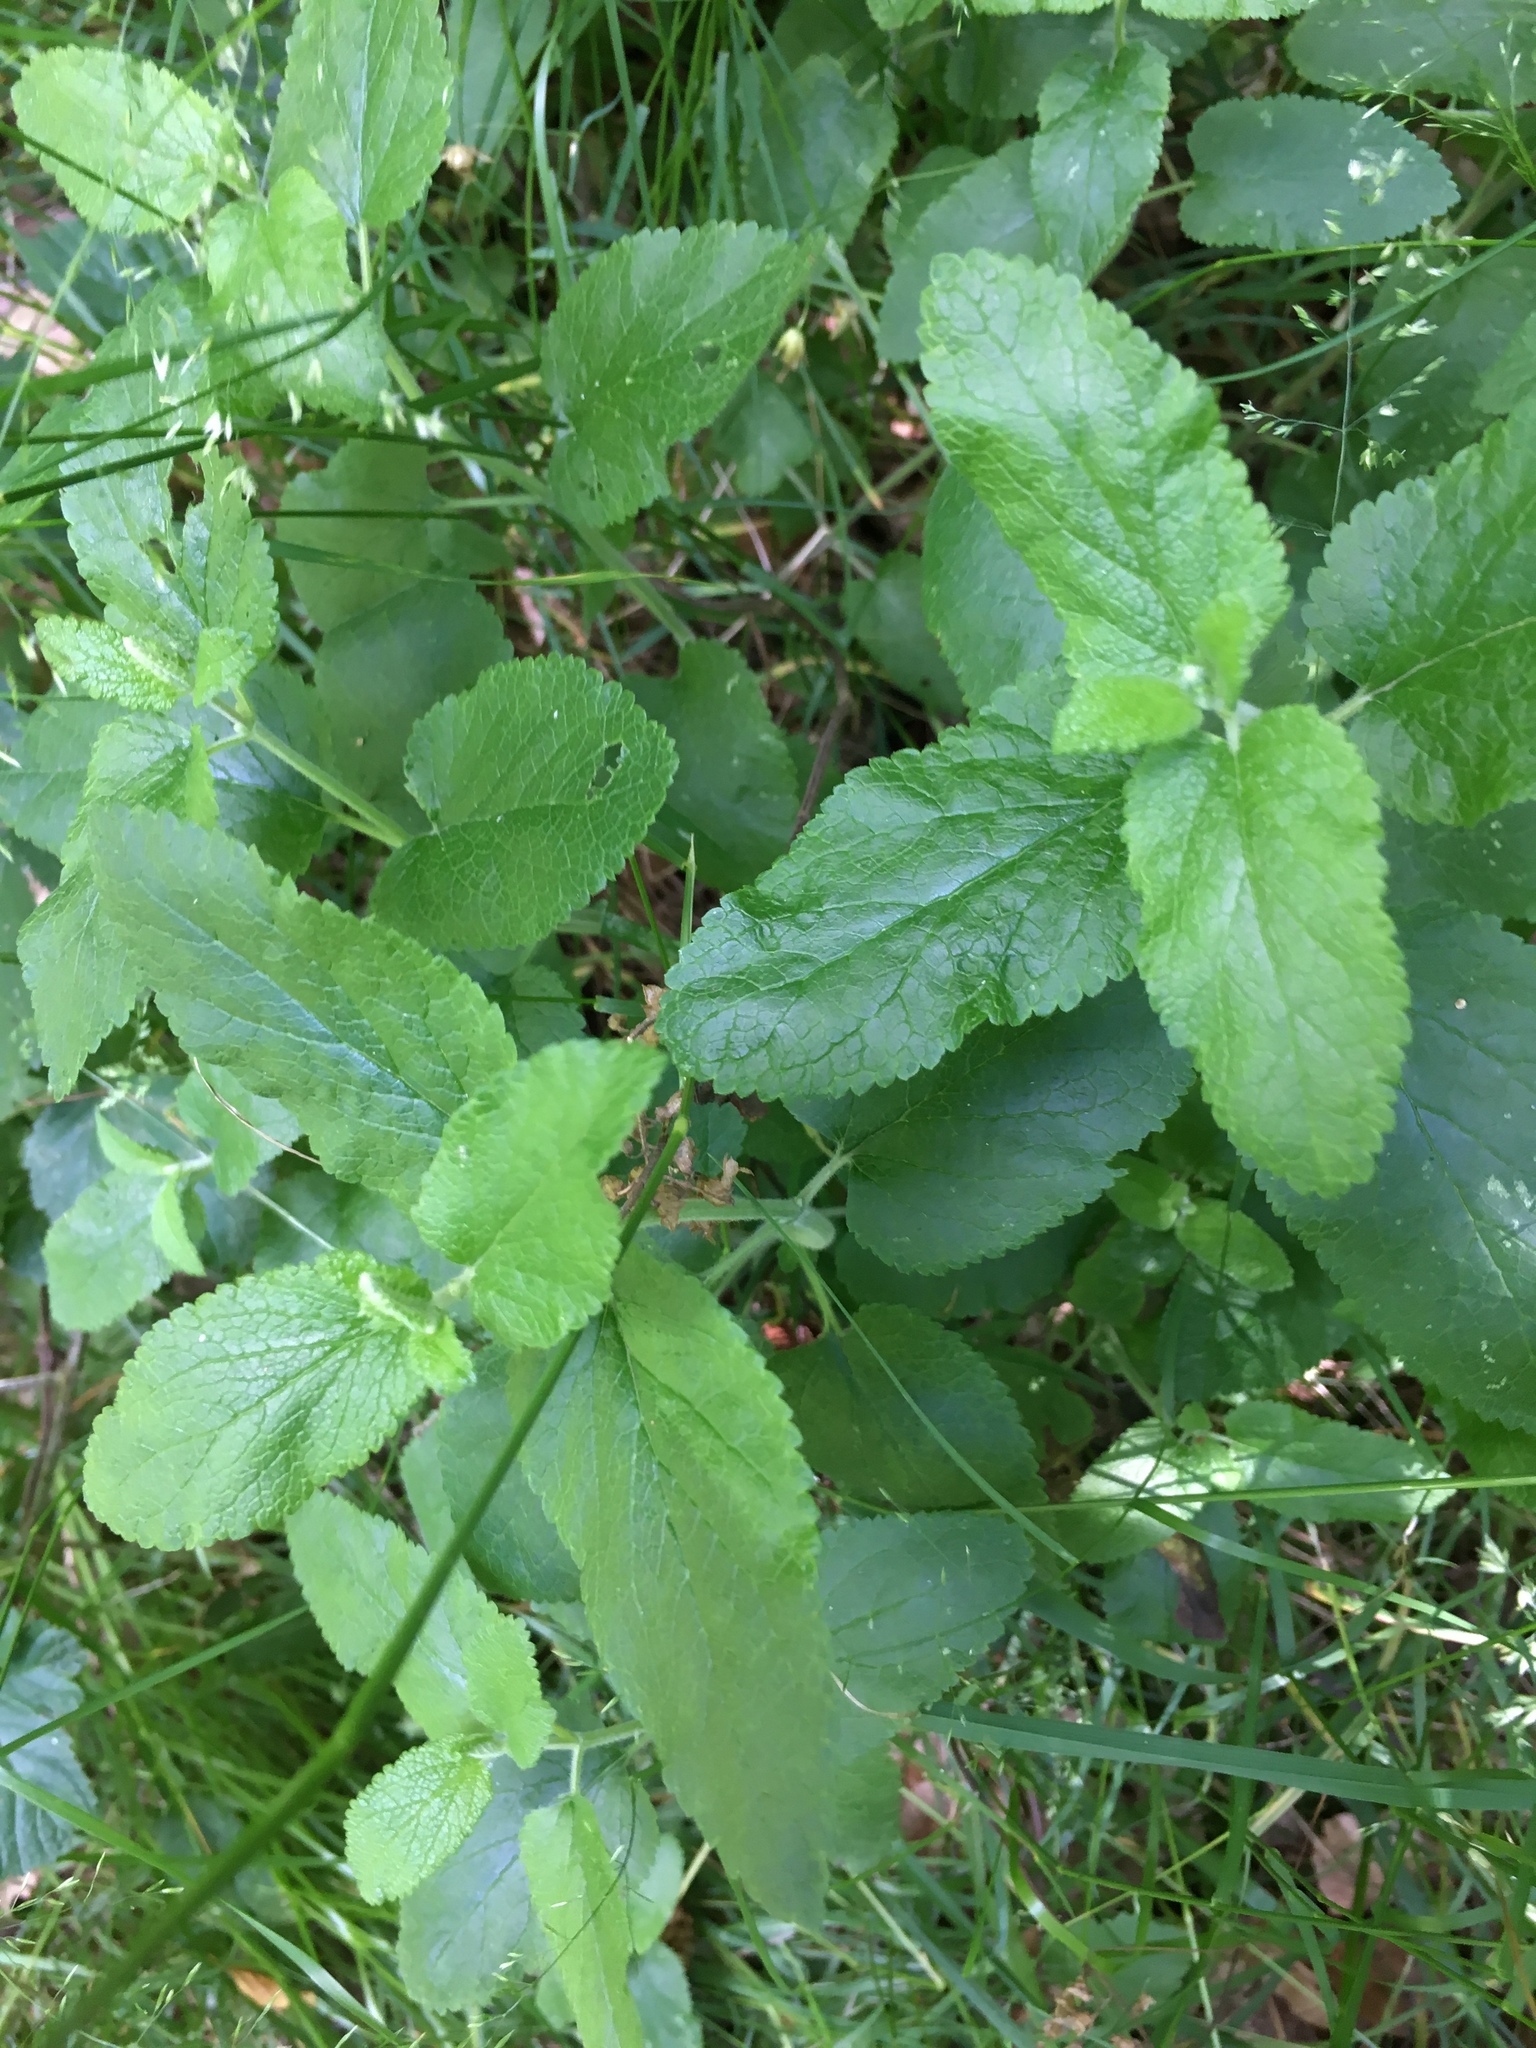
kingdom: Plantae
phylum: Tracheophyta
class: Magnoliopsida
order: Lamiales
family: Lamiaceae
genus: Teucrium
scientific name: Teucrium scorodonia
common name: Woodland germander
